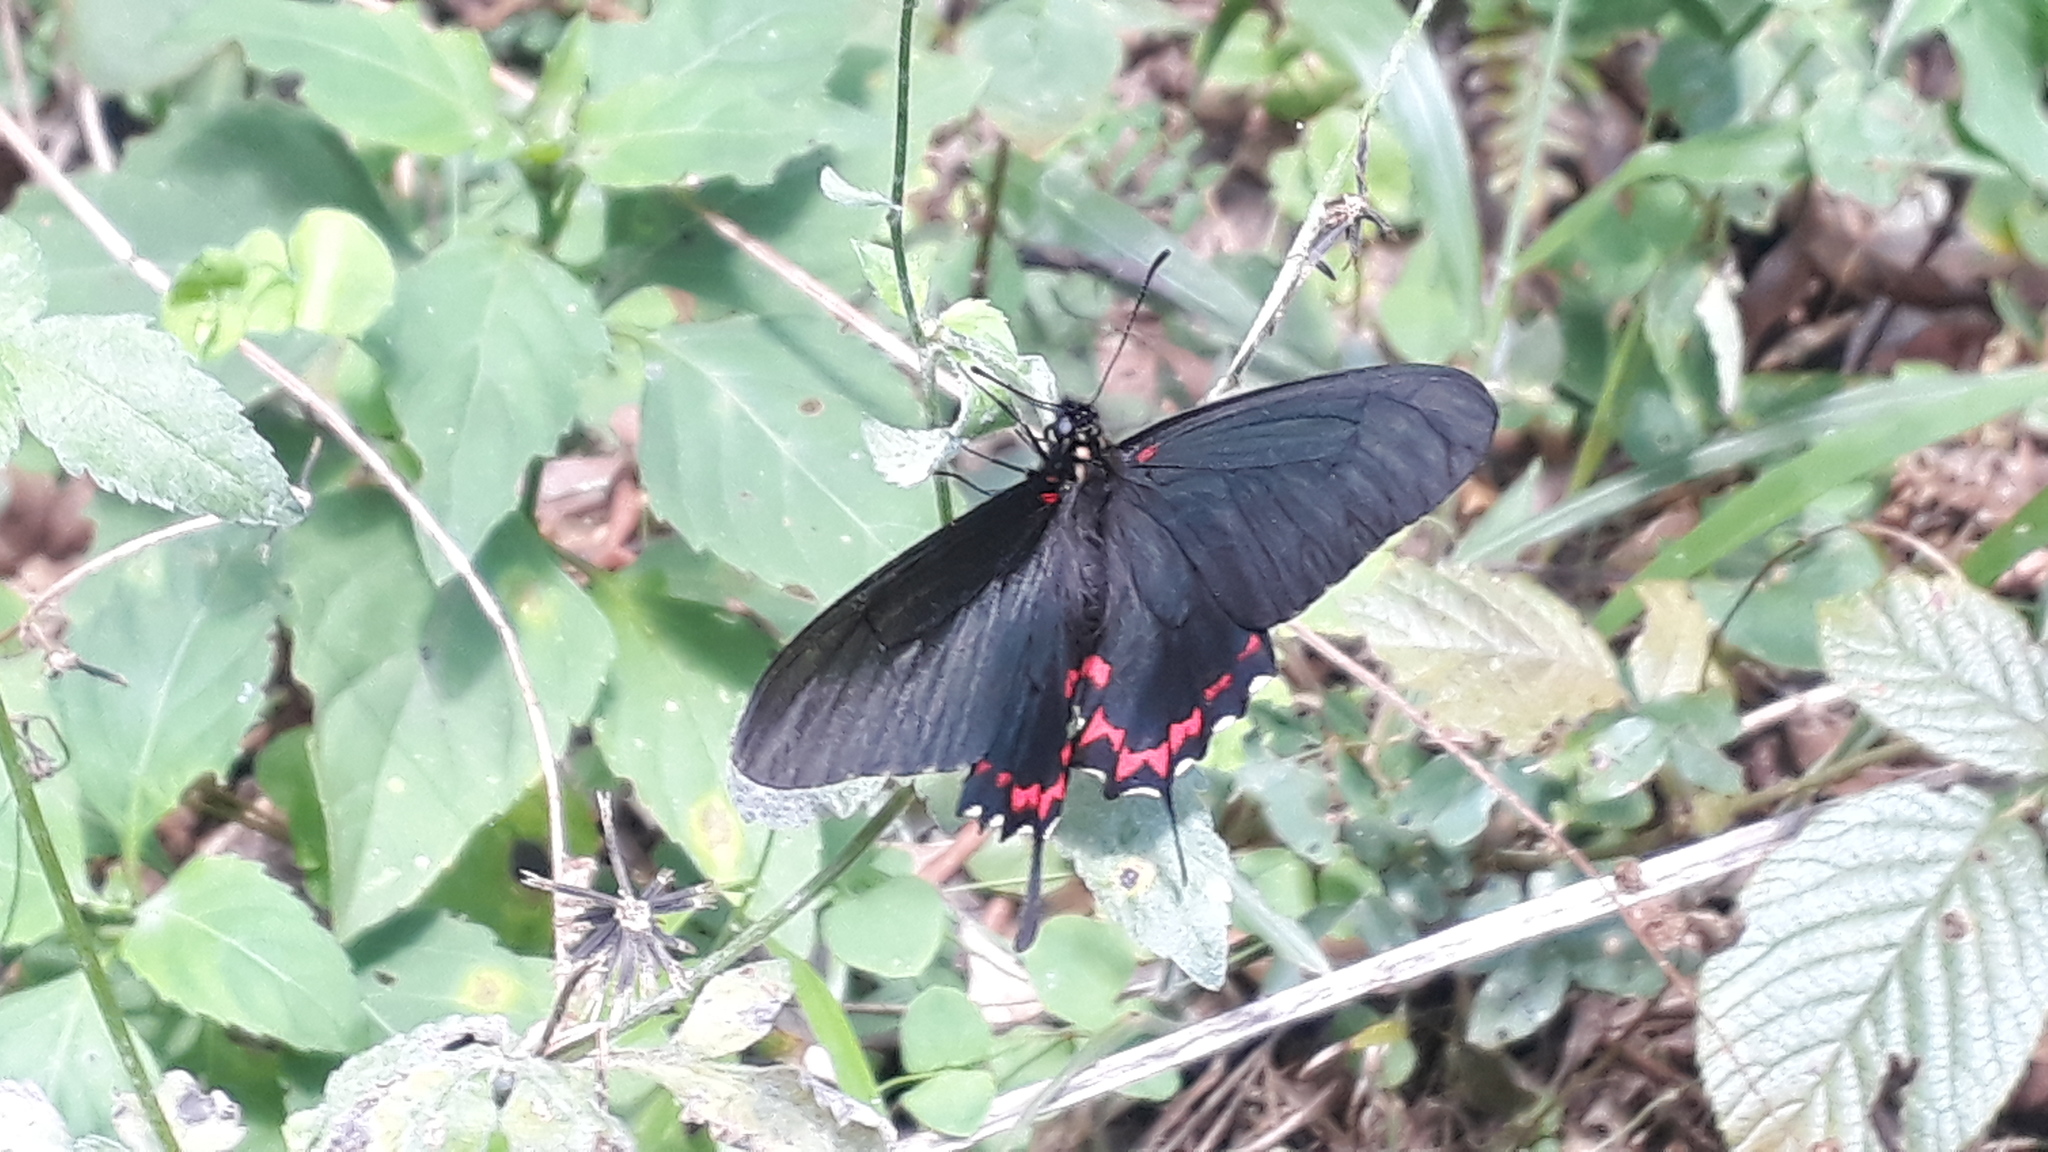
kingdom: Animalia
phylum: Arthropoda
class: Insecta
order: Lepidoptera
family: Papilionidae
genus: Mimoides
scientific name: Mimoides lysithous
